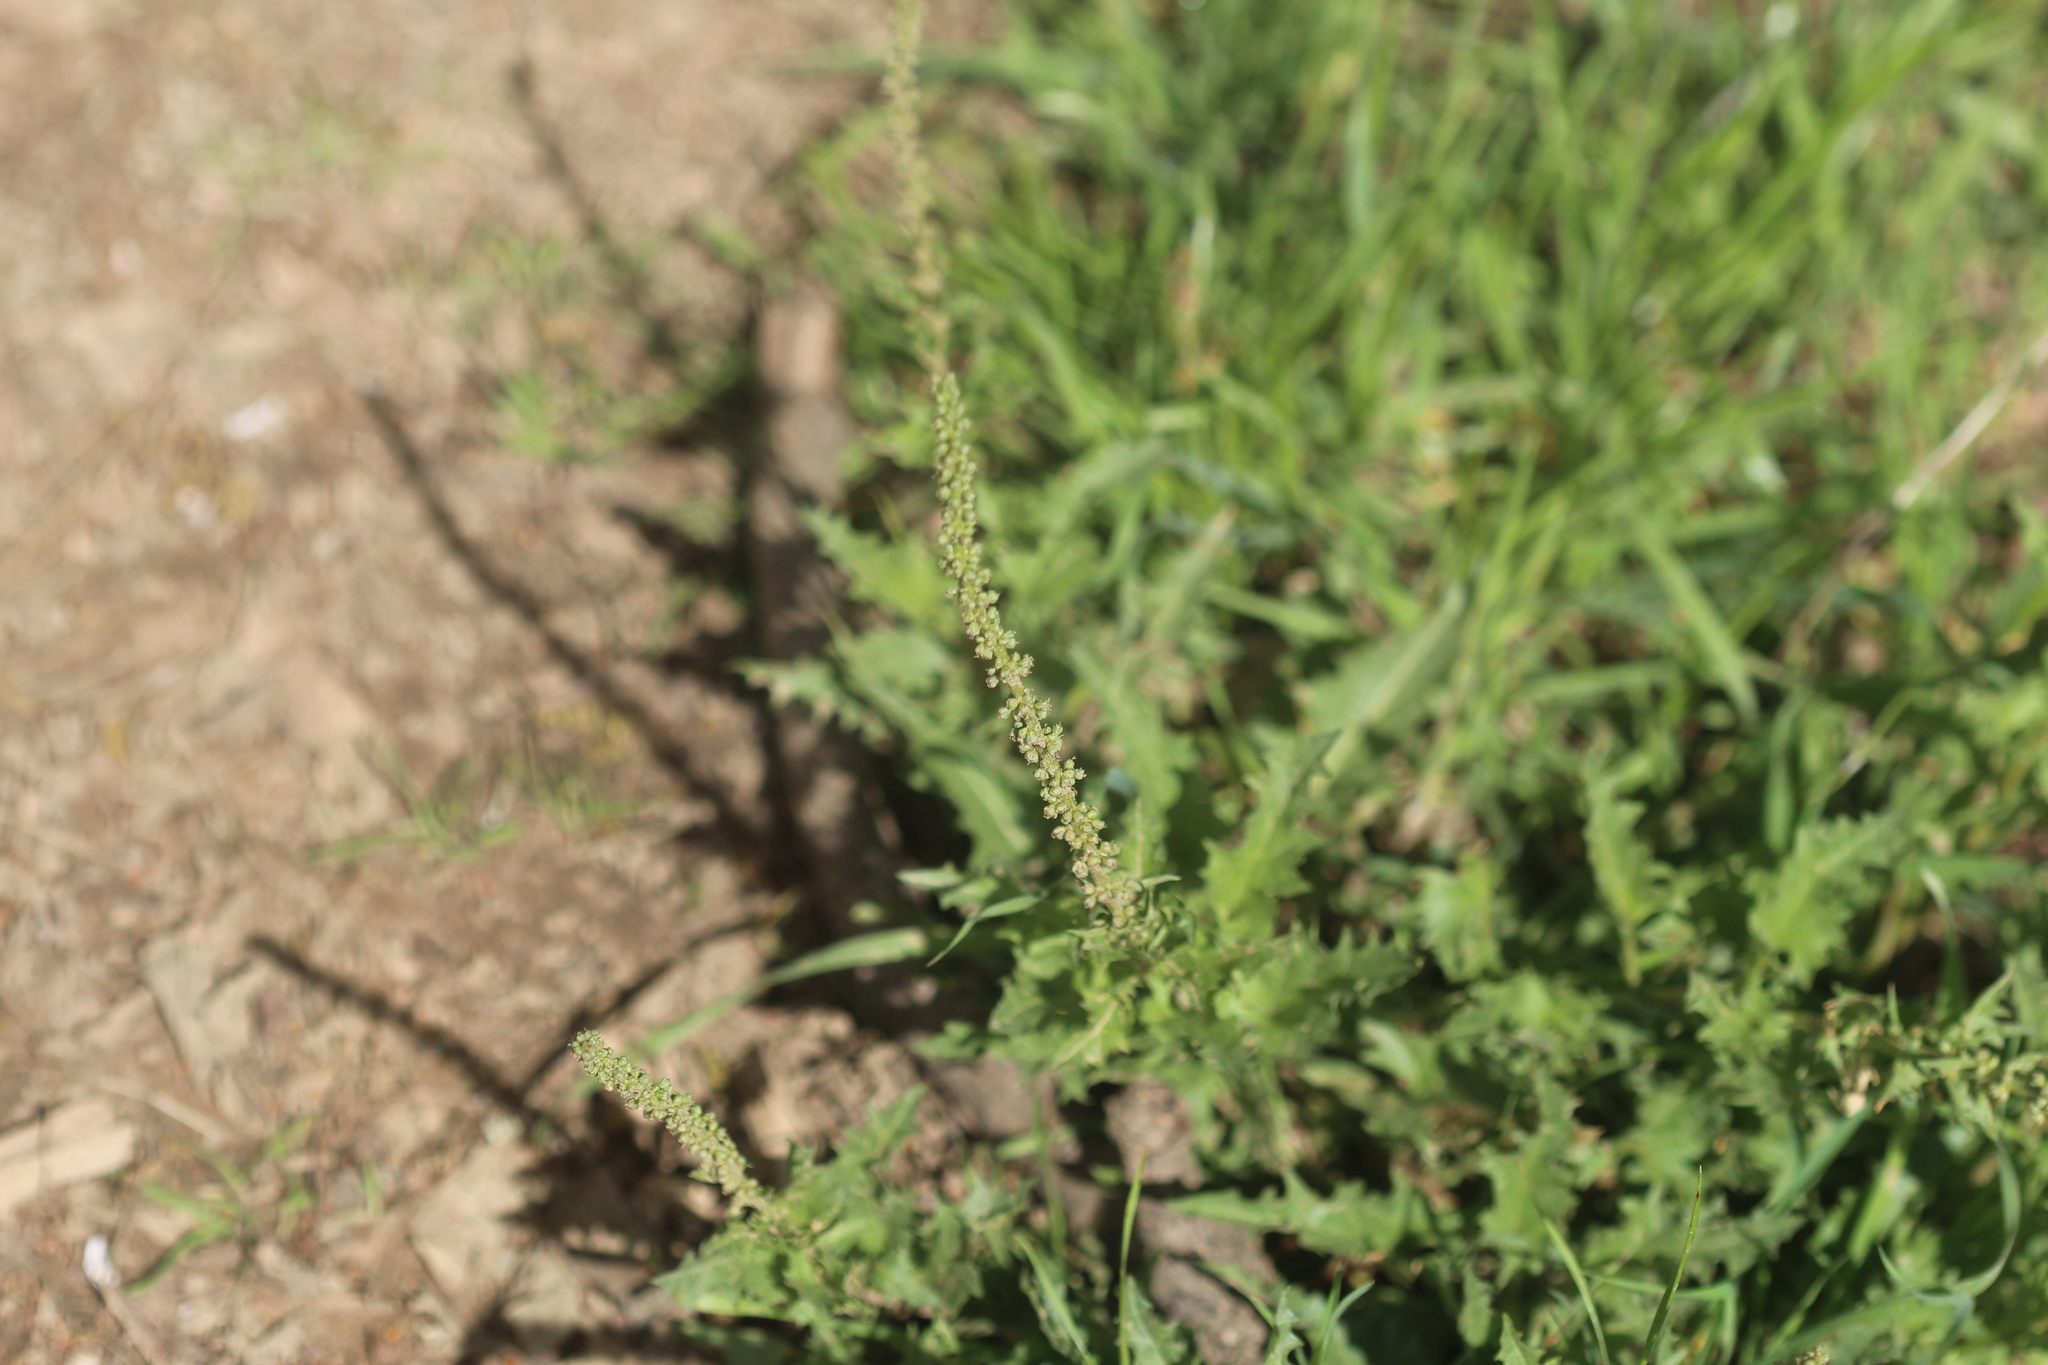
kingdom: Plantae
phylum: Tracheophyta
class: Magnoliopsida
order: Caryophyllales
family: Amaranthaceae
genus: Blitum
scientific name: Blitum californicum
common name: California goosefoot
